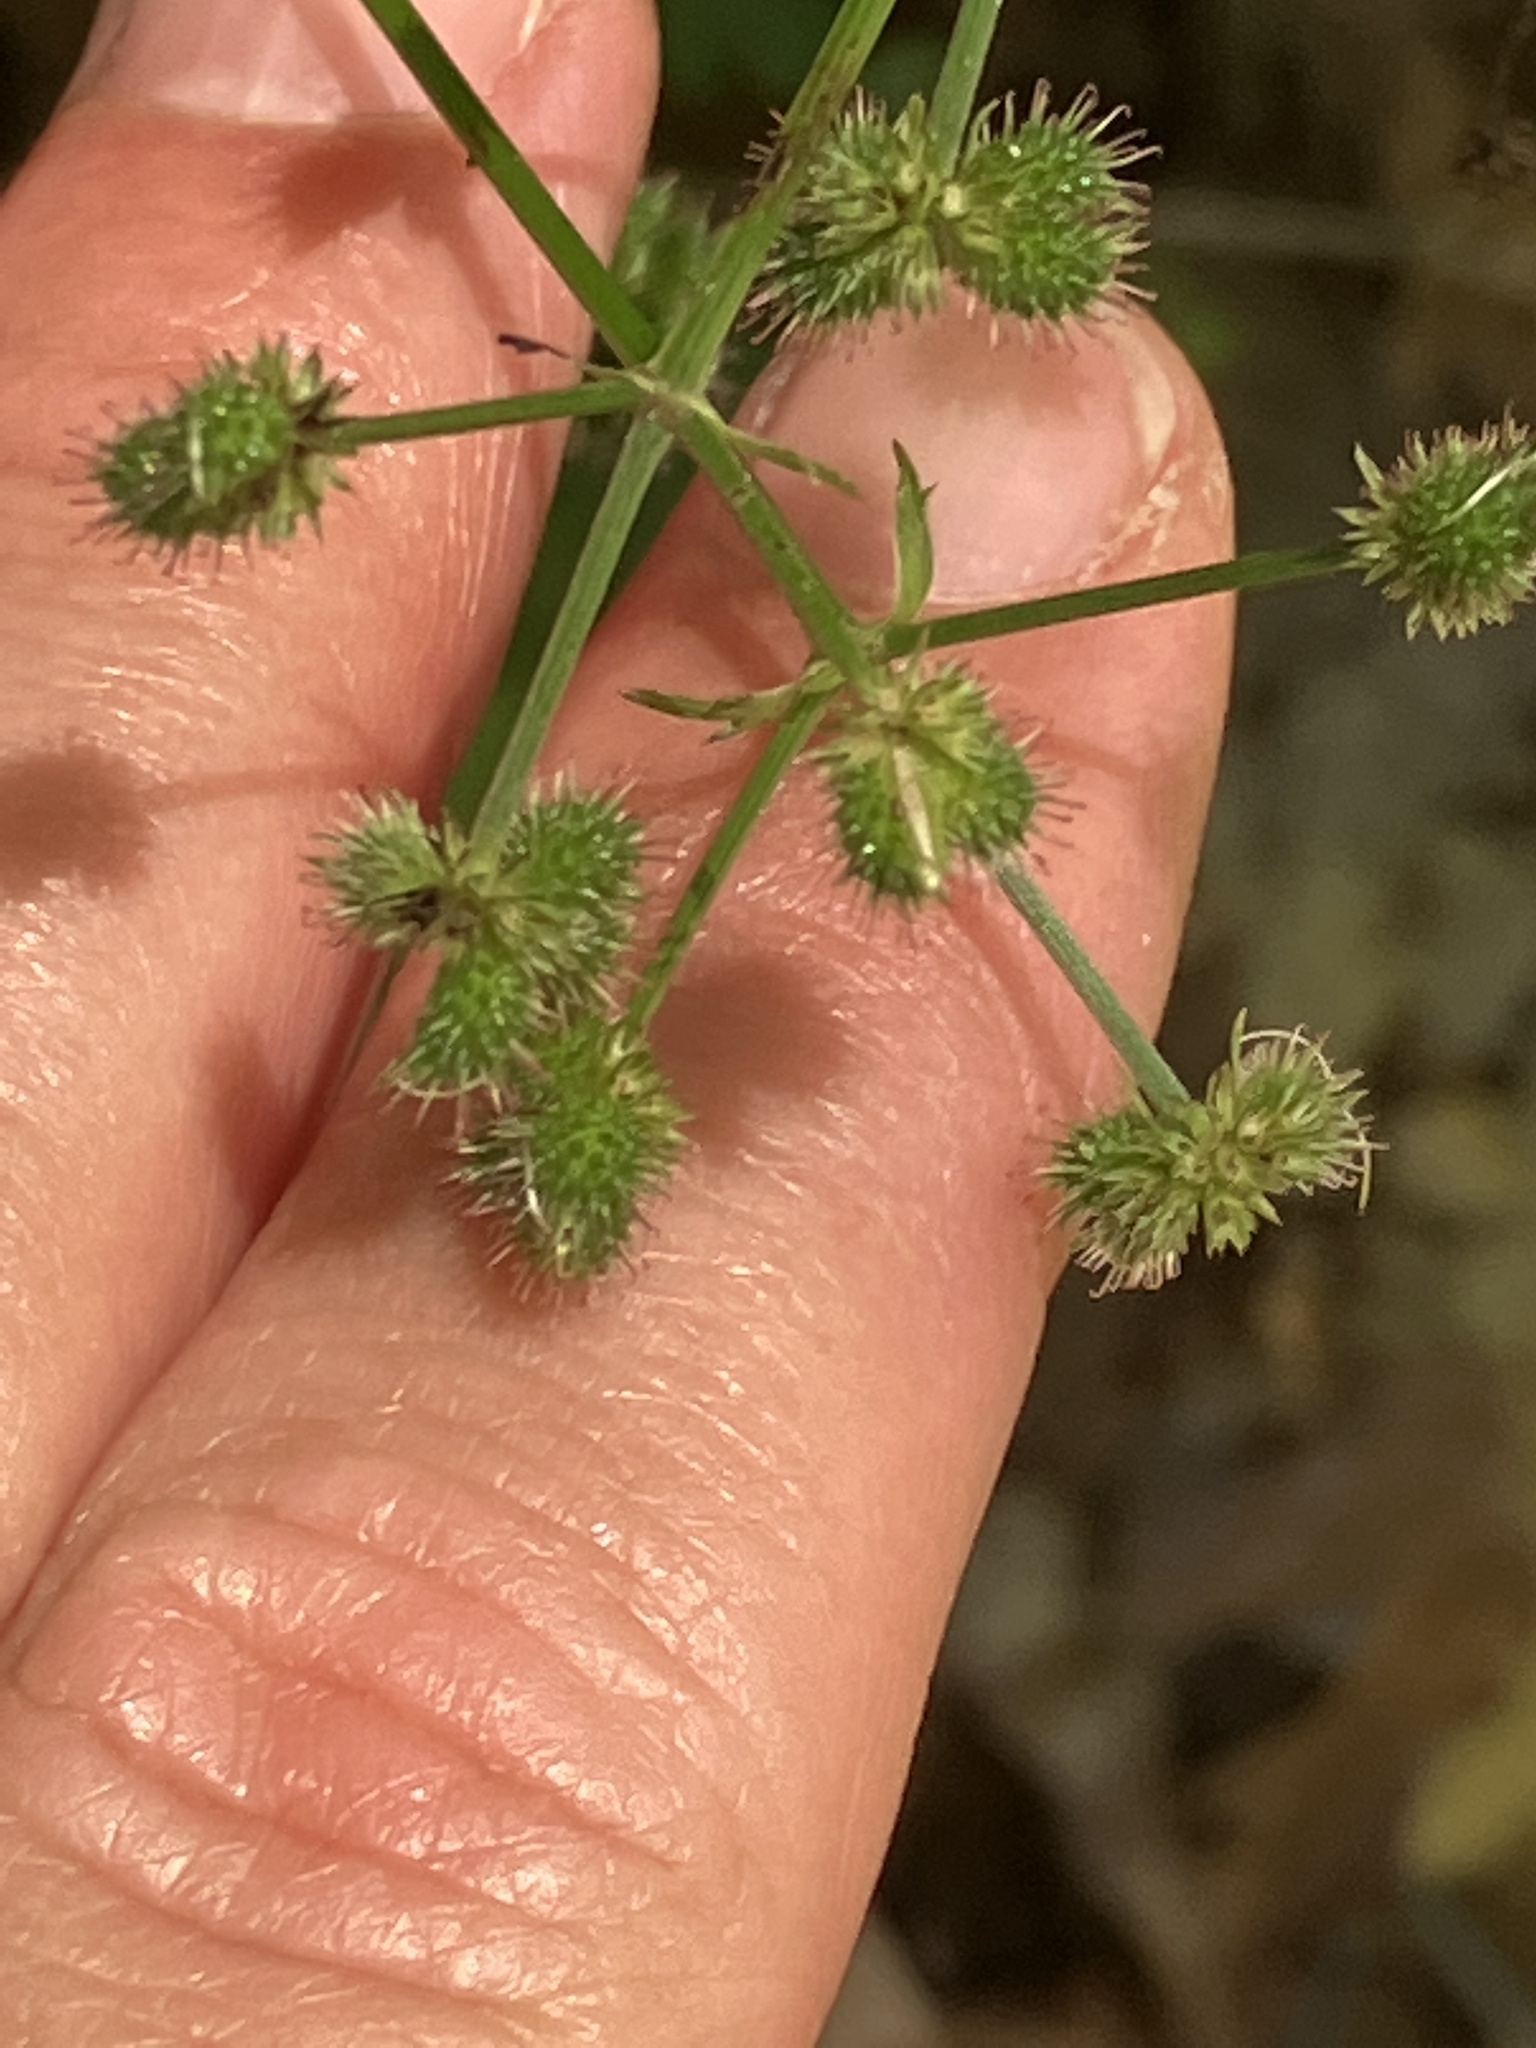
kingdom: Plantae
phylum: Tracheophyta
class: Magnoliopsida
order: Apiales
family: Apiaceae
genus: Sanicula
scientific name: Sanicula europaea
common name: Sanicle
